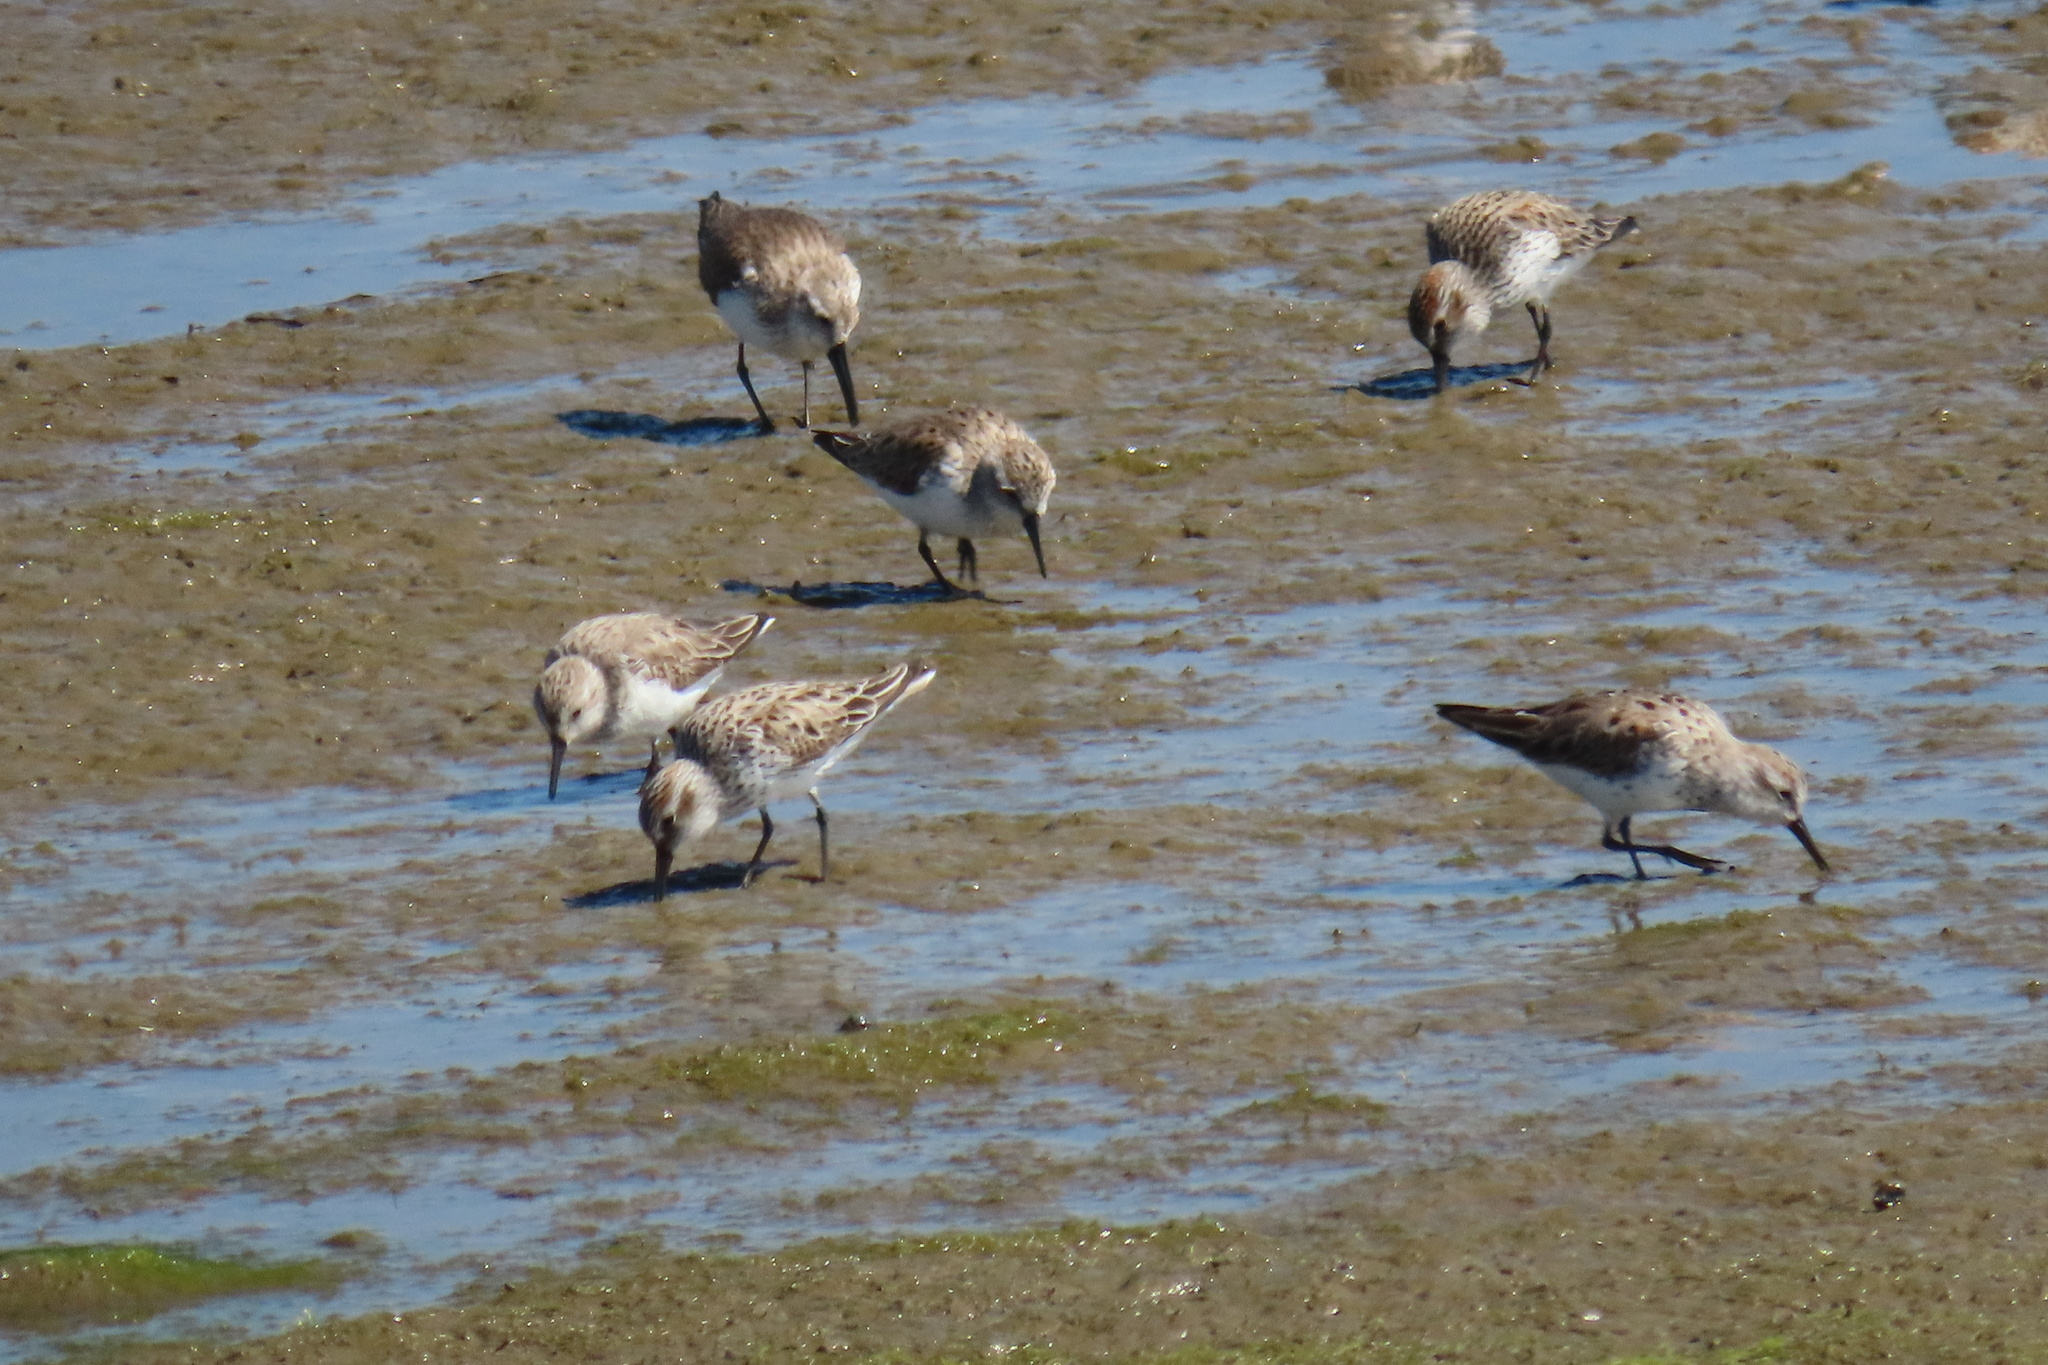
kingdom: Animalia
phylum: Chordata
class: Aves
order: Charadriiformes
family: Scolopacidae
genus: Calidris
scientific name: Calidris mauri
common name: Western sandpiper
